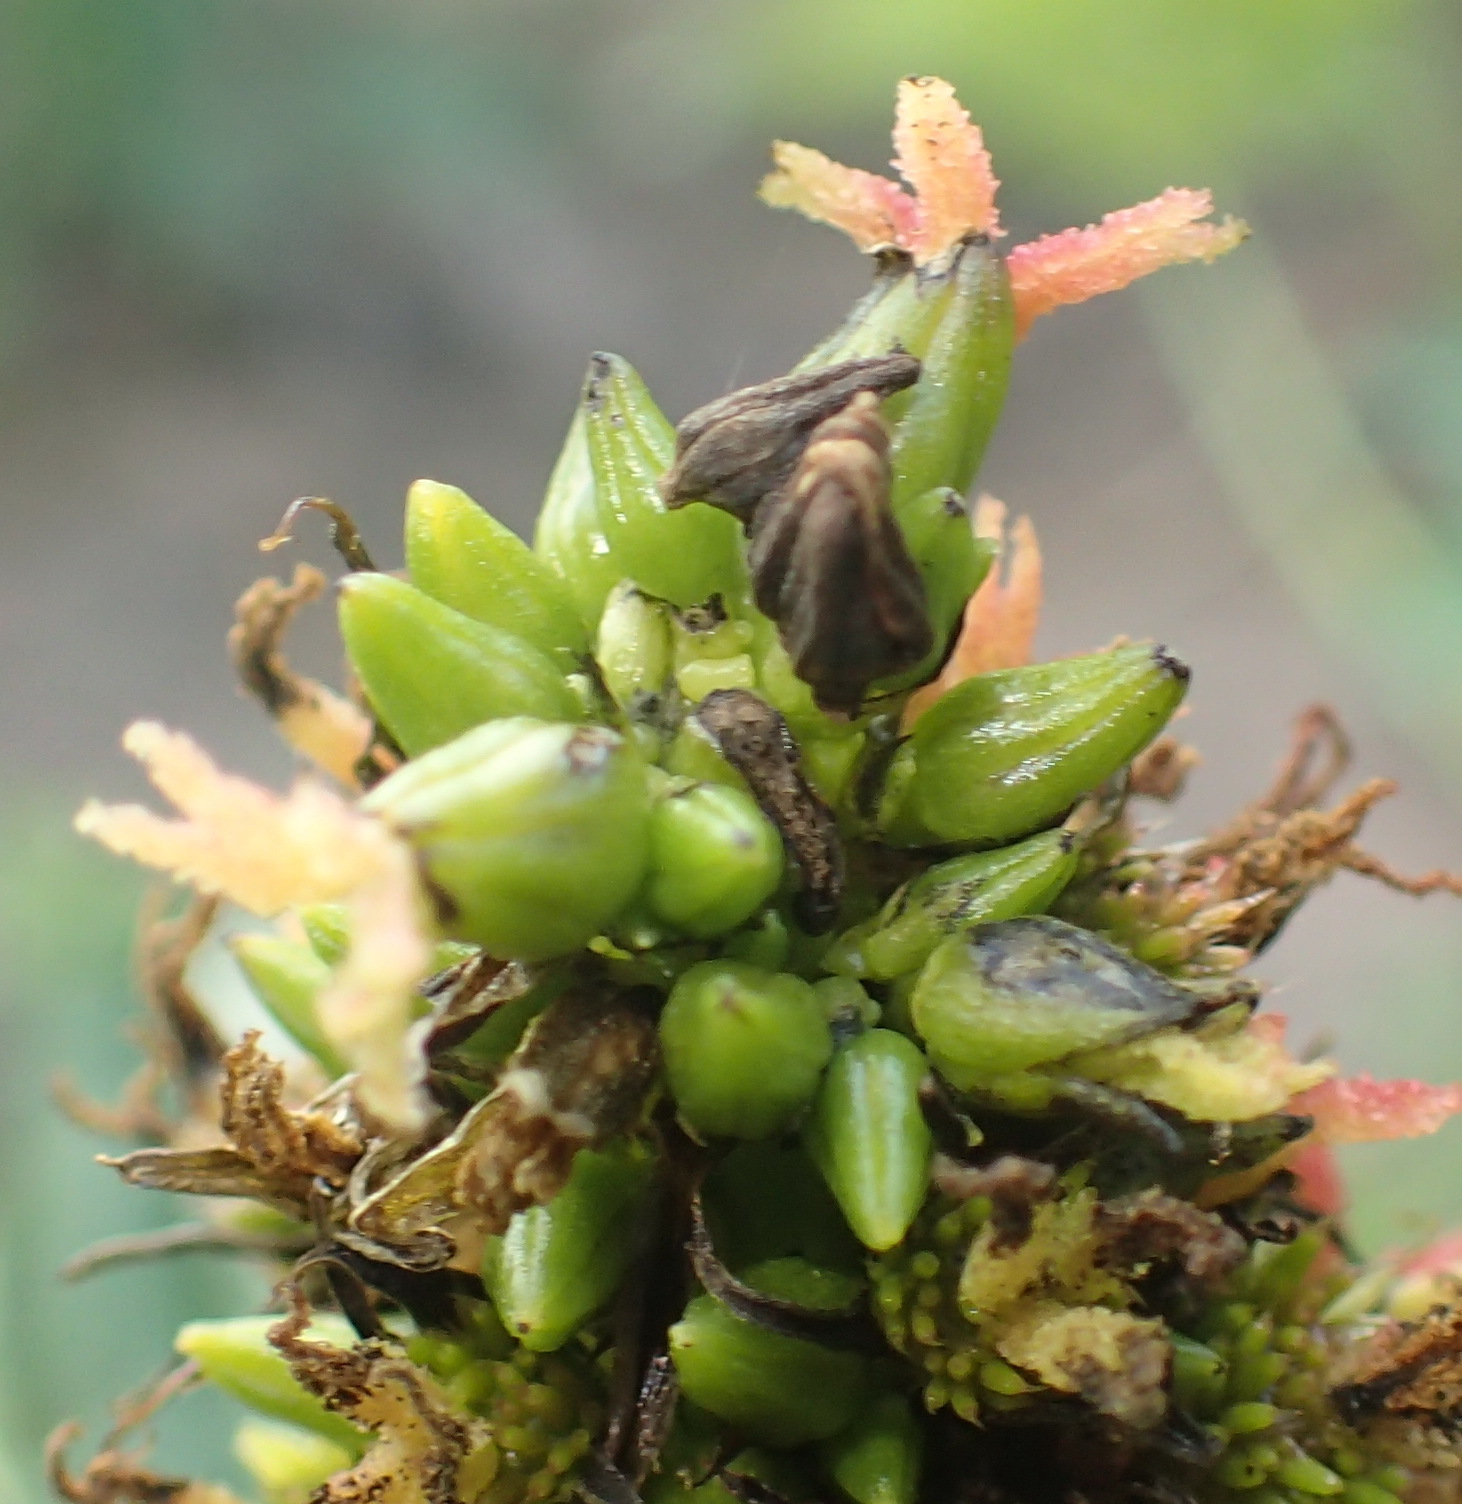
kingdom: Plantae
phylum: Tracheophyta
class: Magnoliopsida
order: Malpighiales
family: Euphorbiaceae
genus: Ricinus
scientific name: Ricinus communis
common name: Castor-oil-plant
